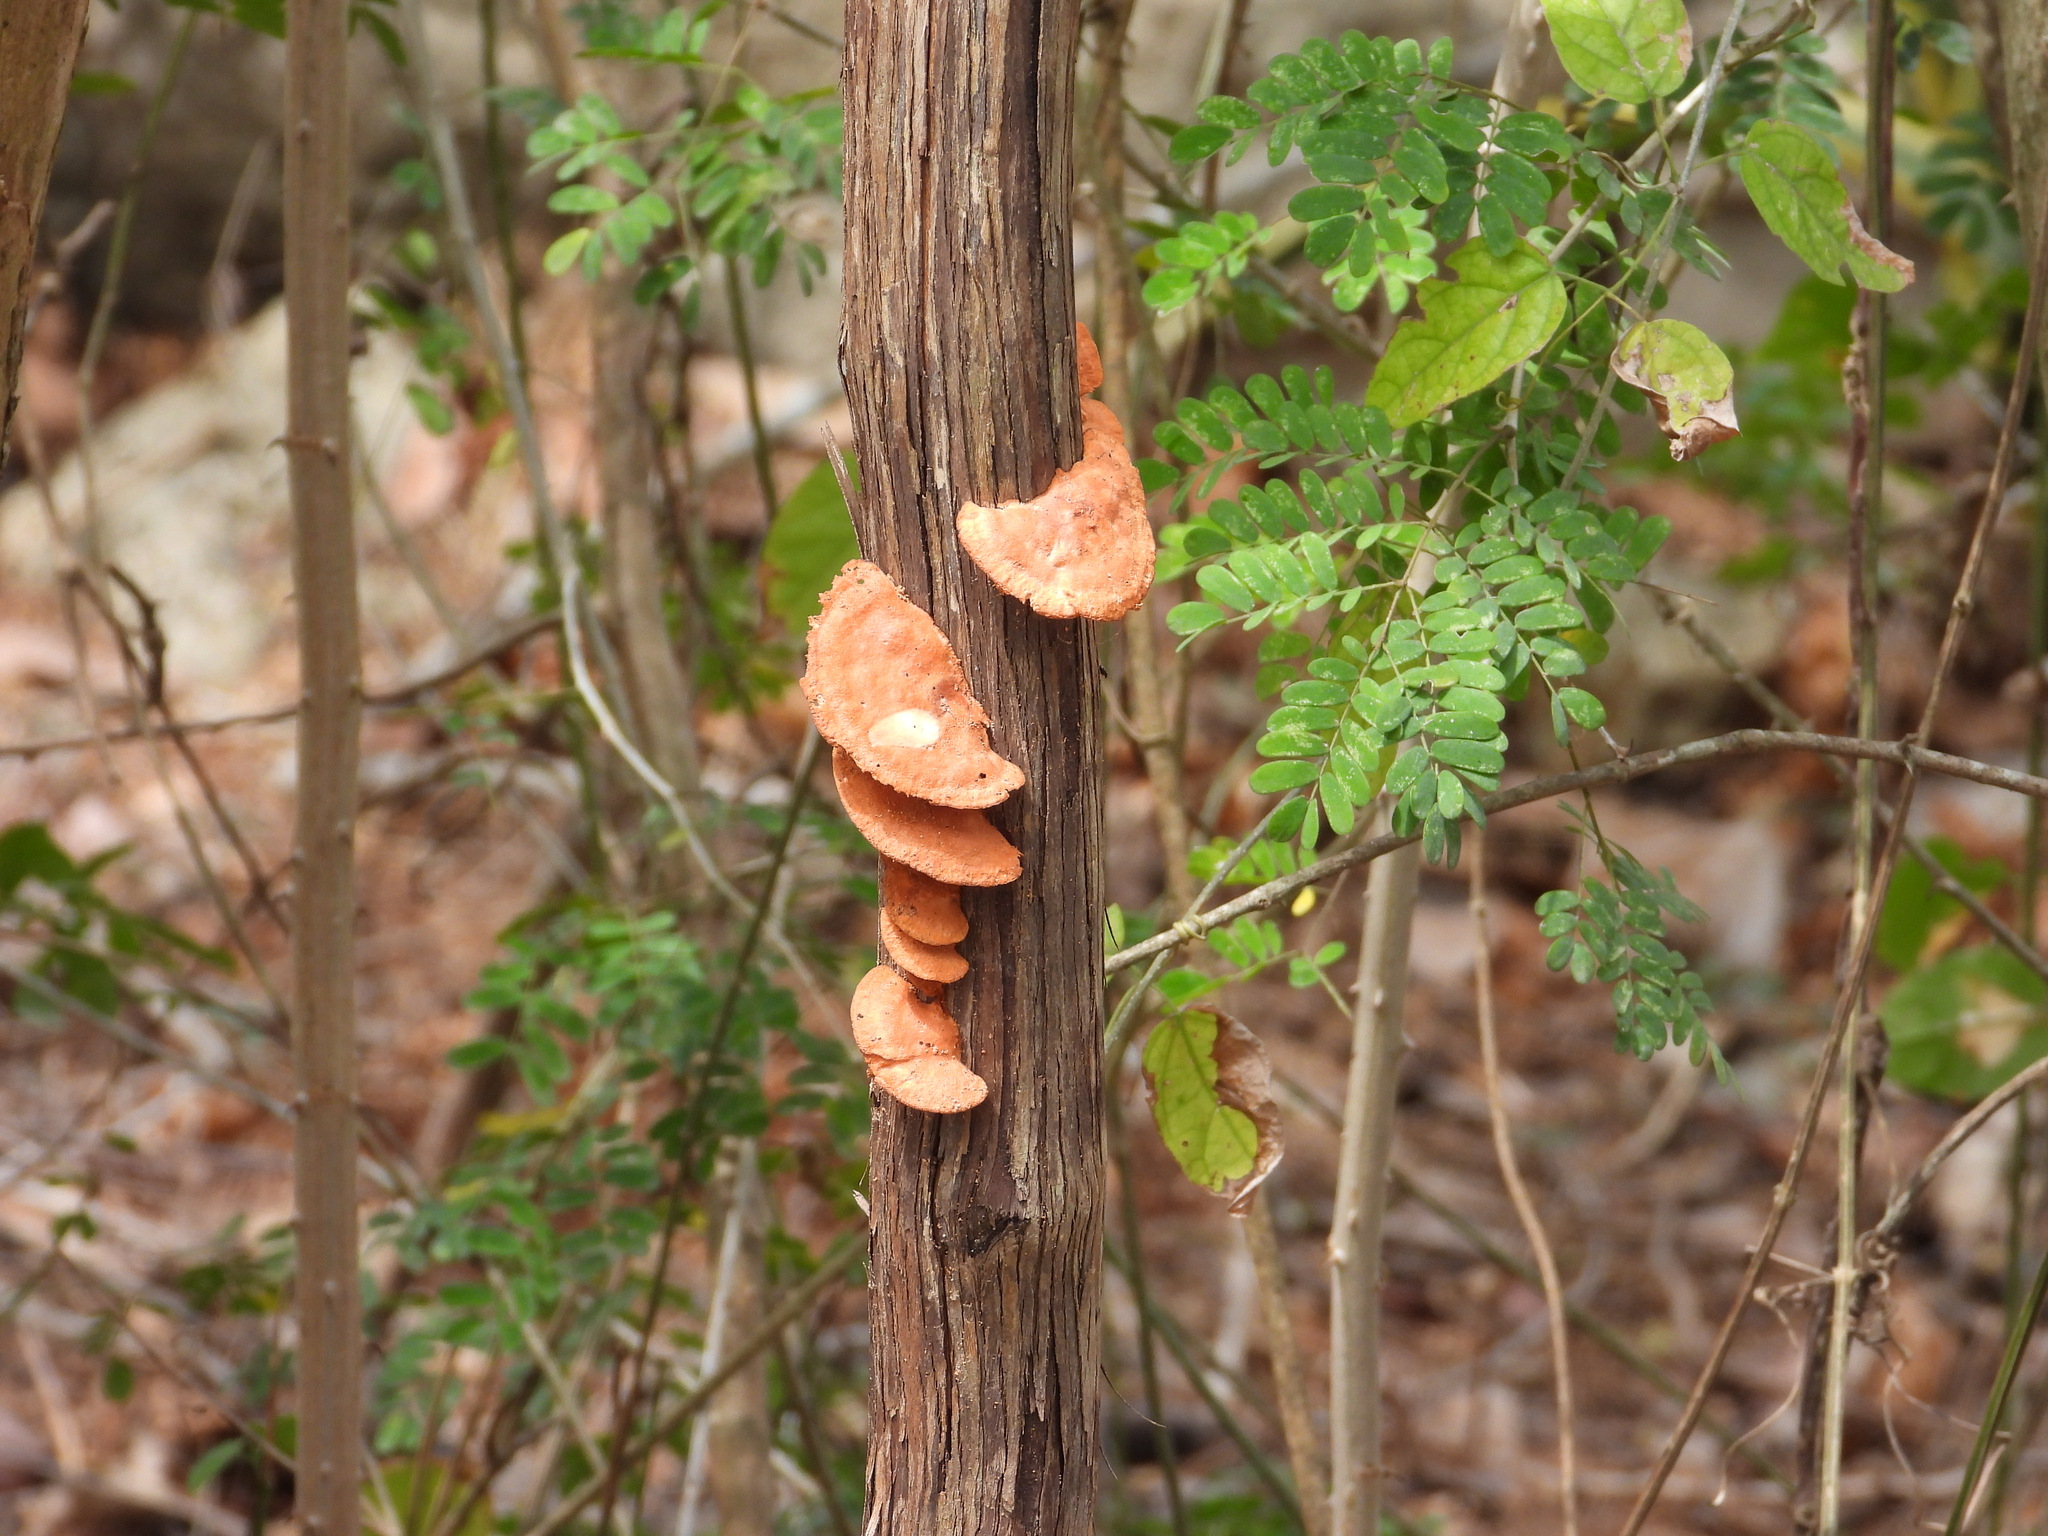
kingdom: Fungi
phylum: Basidiomycota
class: Agaricomycetes
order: Polyporales
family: Polyporaceae
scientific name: Polyporaceae
